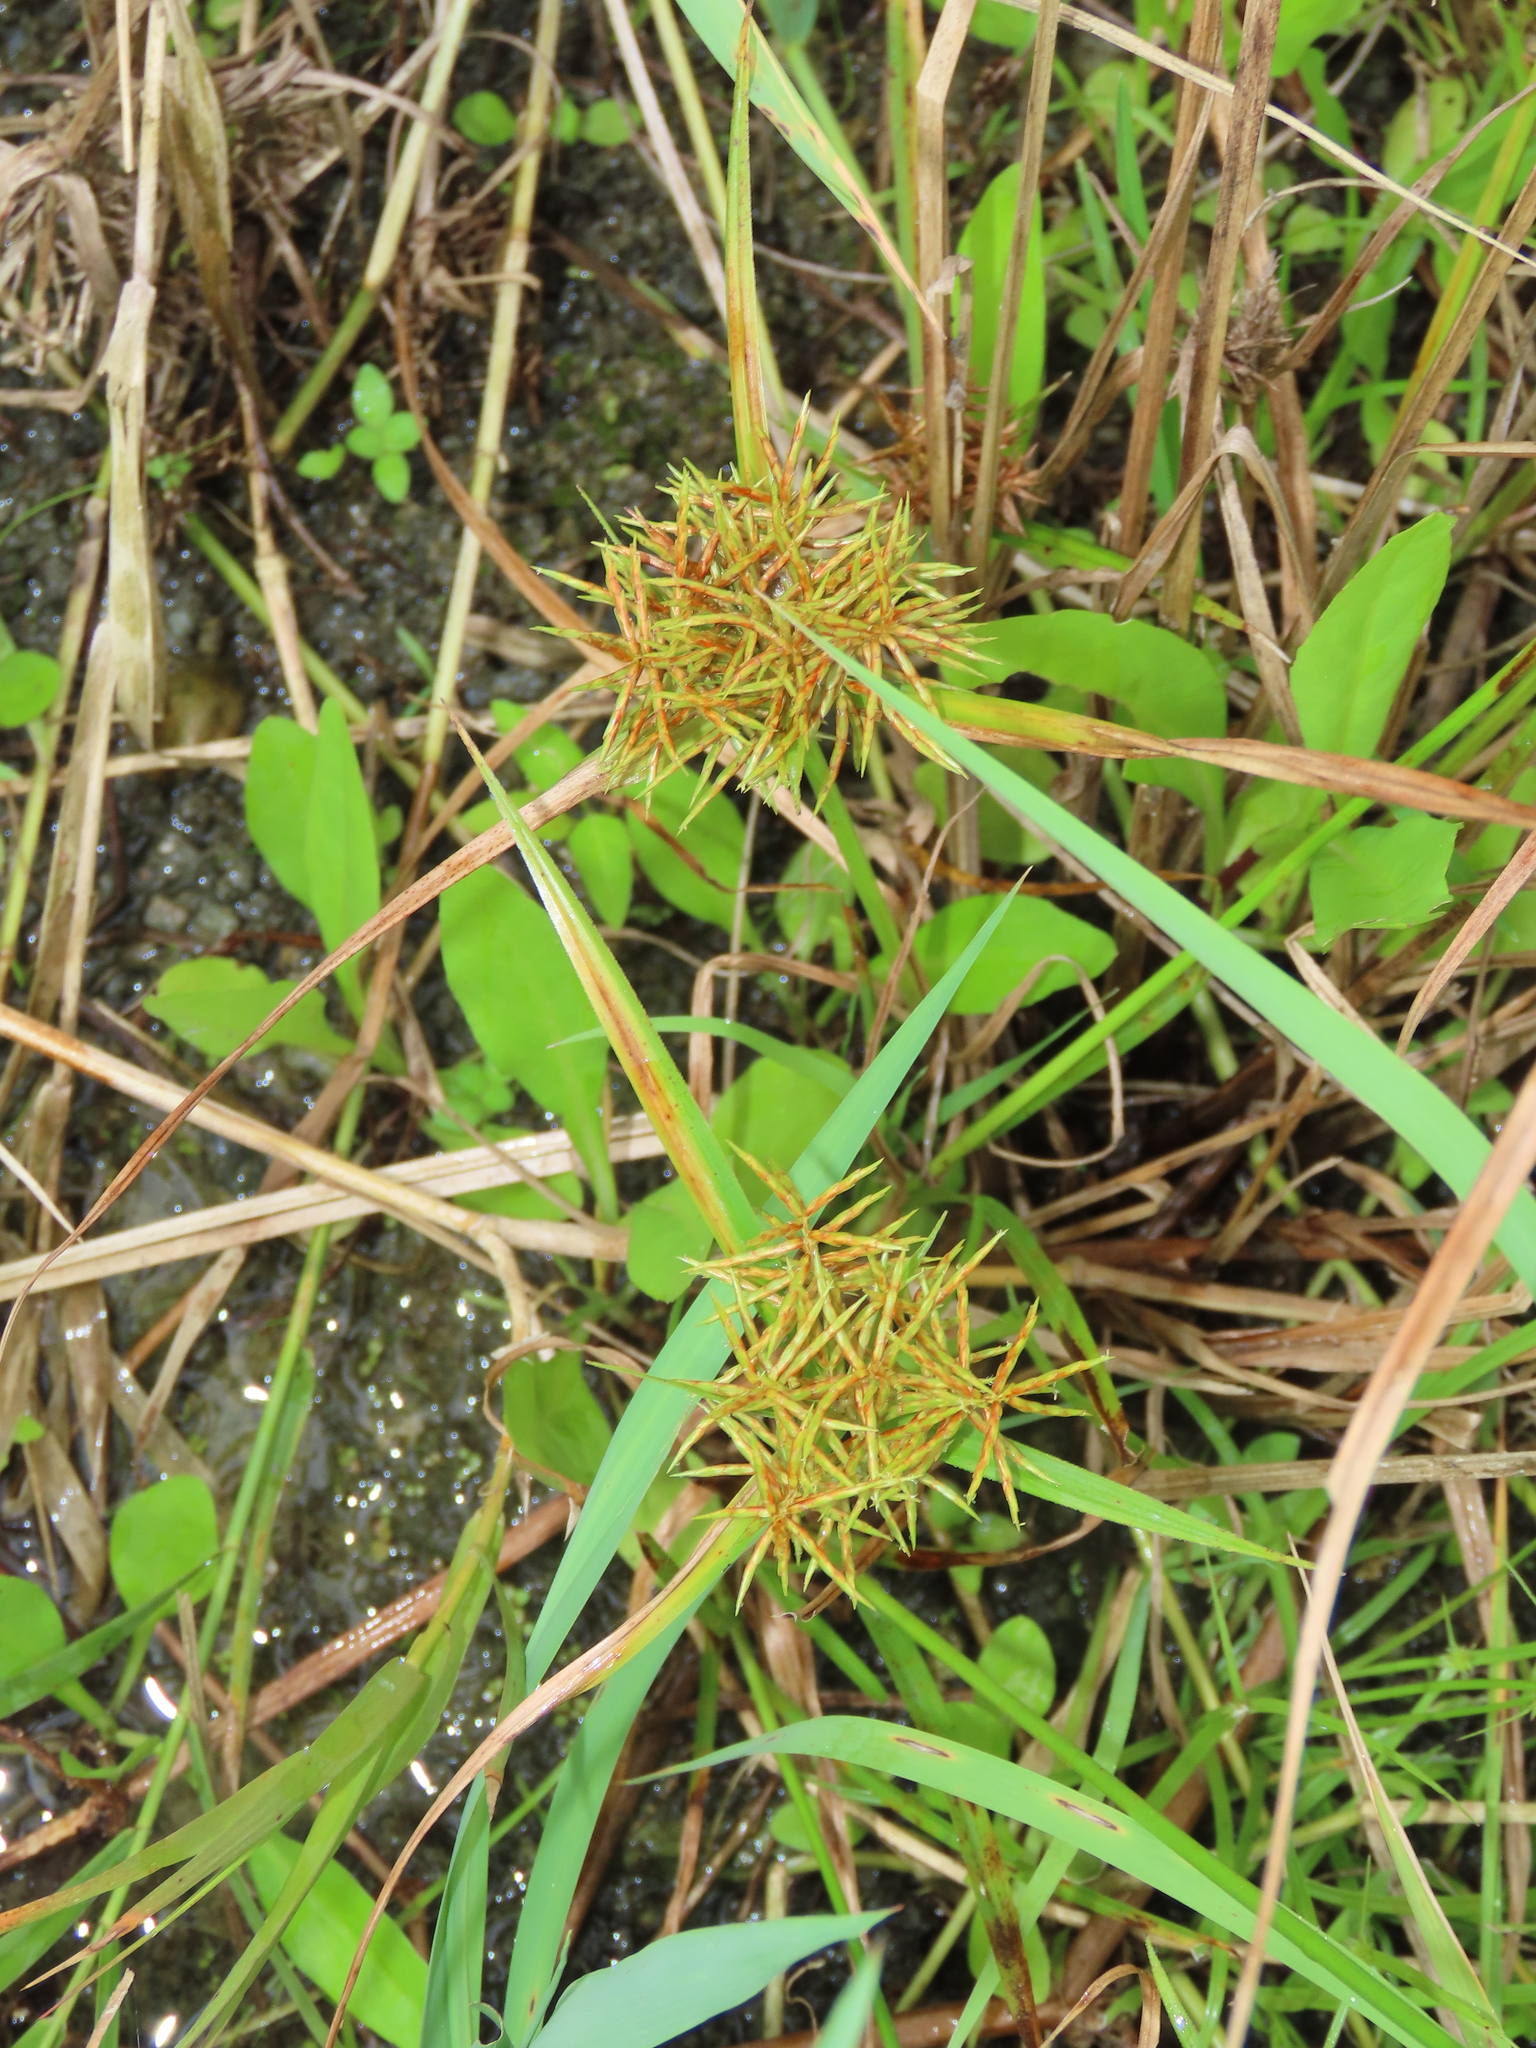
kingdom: Plantae
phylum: Tracheophyta
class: Liliopsida
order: Poales
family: Cyperaceae
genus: Cyperus
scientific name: Cyperus odoratus
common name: Fragrant flatsedge
